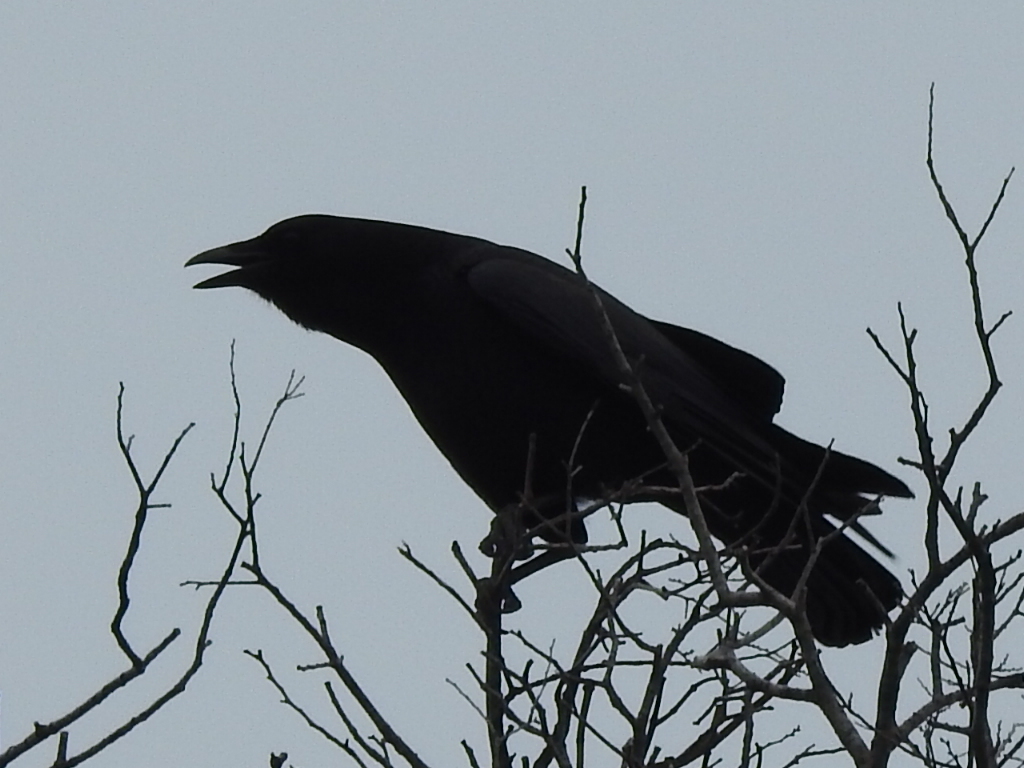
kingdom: Animalia
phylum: Chordata
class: Aves
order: Passeriformes
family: Corvidae
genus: Corvus
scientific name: Corvus brachyrhynchos
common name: American crow
